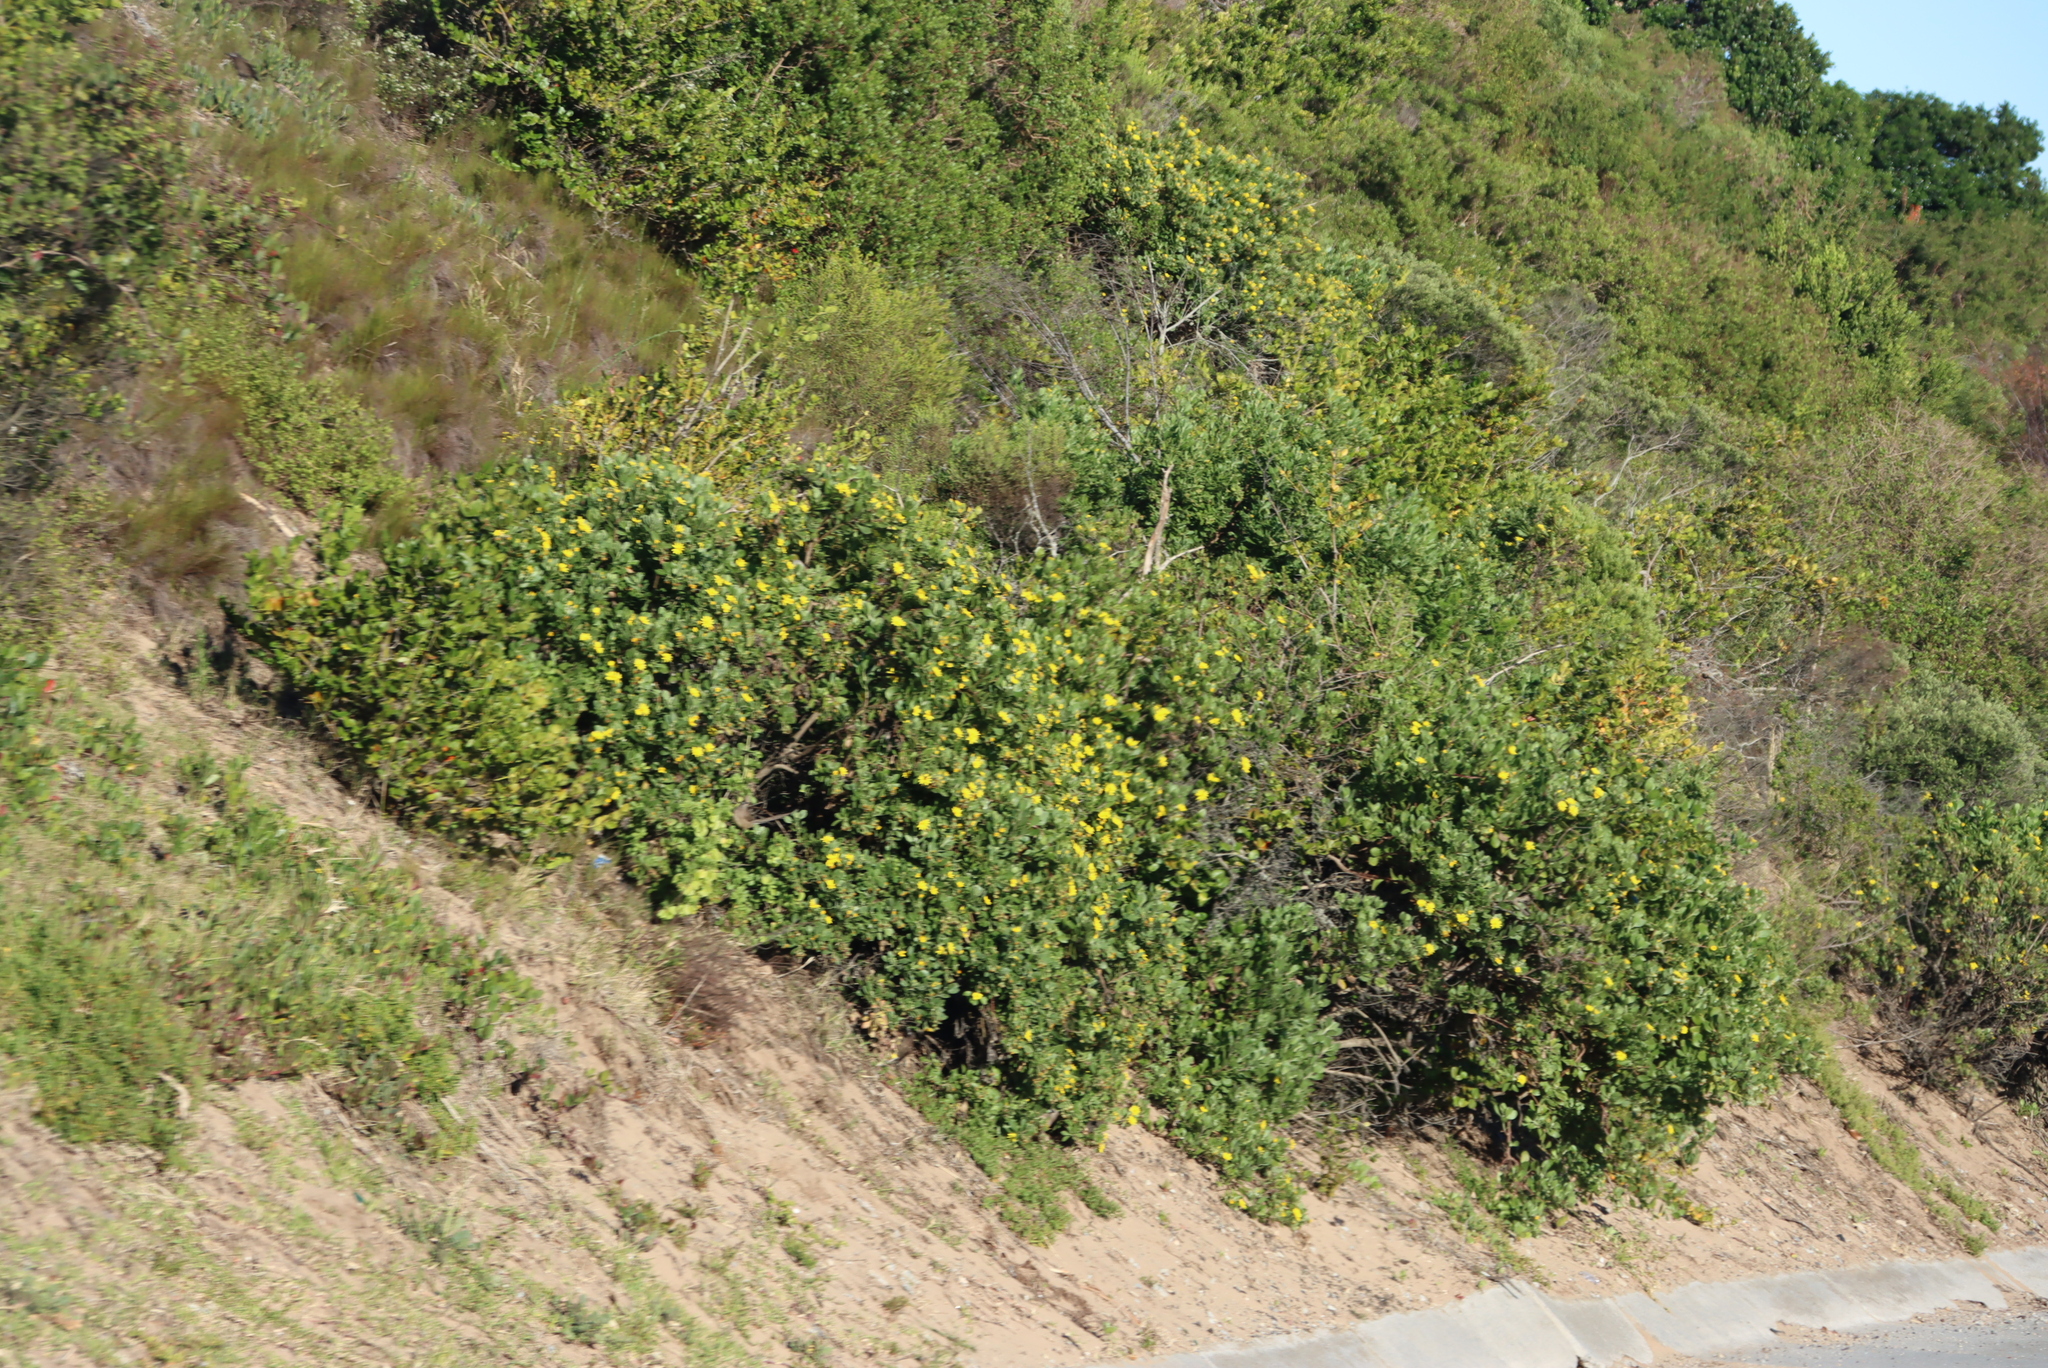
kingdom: Plantae
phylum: Tracheophyta
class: Magnoliopsida
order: Asterales
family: Asteraceae
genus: Osteospermum
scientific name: Osteospermum moniliferum
